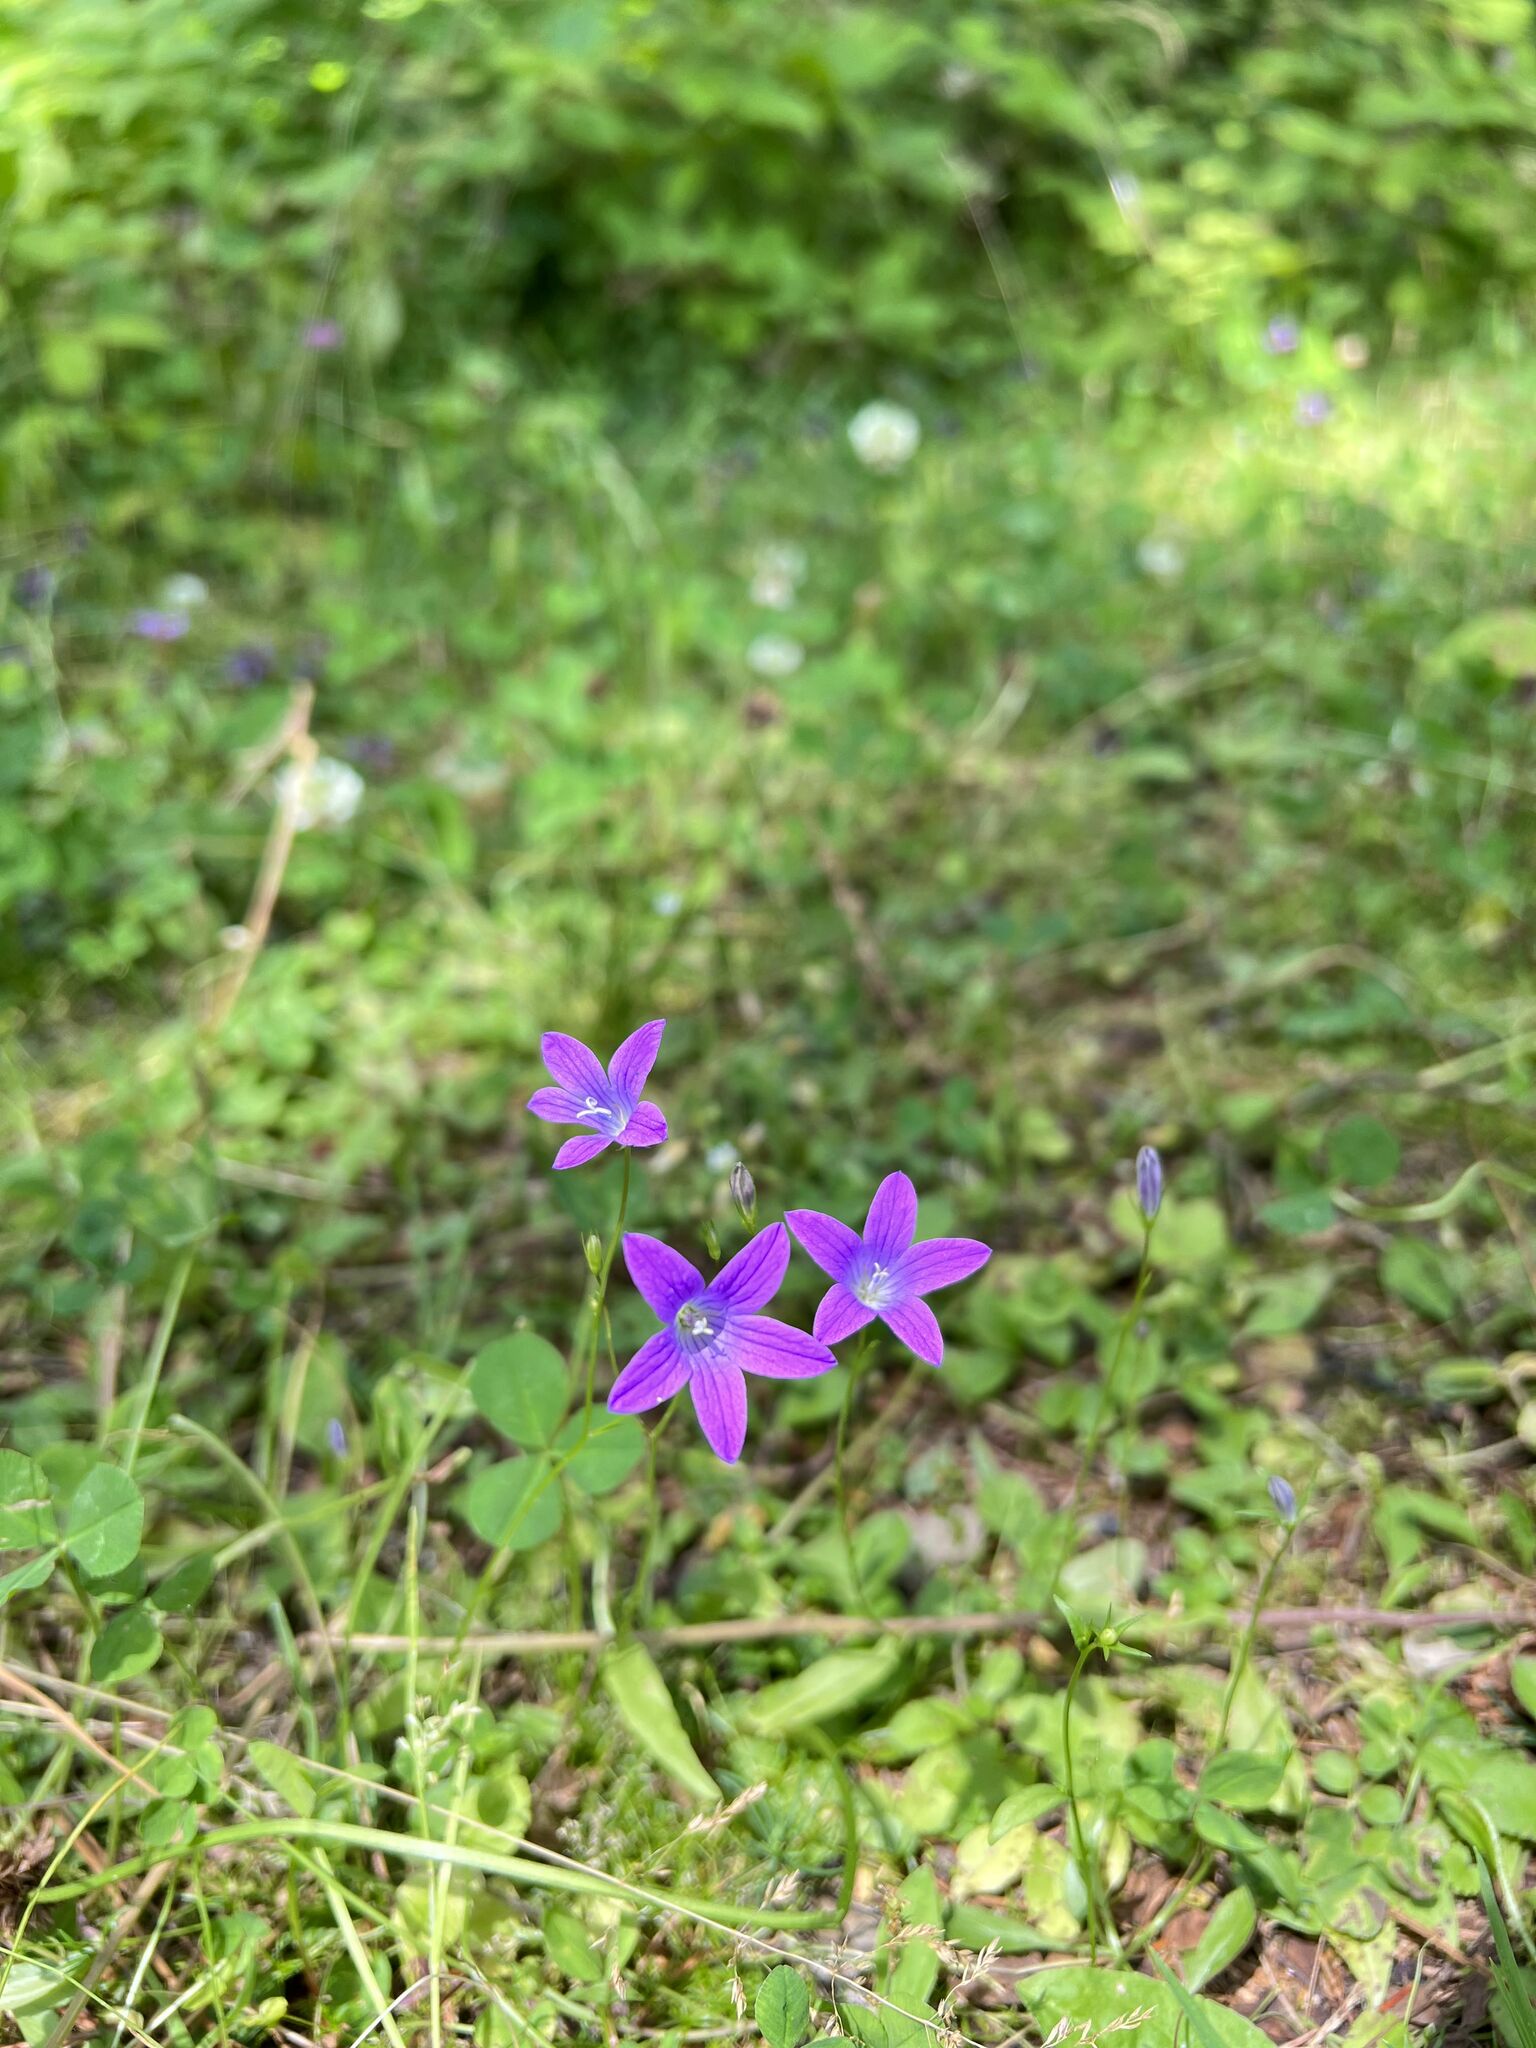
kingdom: Plantae
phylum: Tracheophyta
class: Magnoliopsida
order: Asterales
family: Campanulaceae
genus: Campanula
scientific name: Campanula patula
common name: Spreading bellflower
